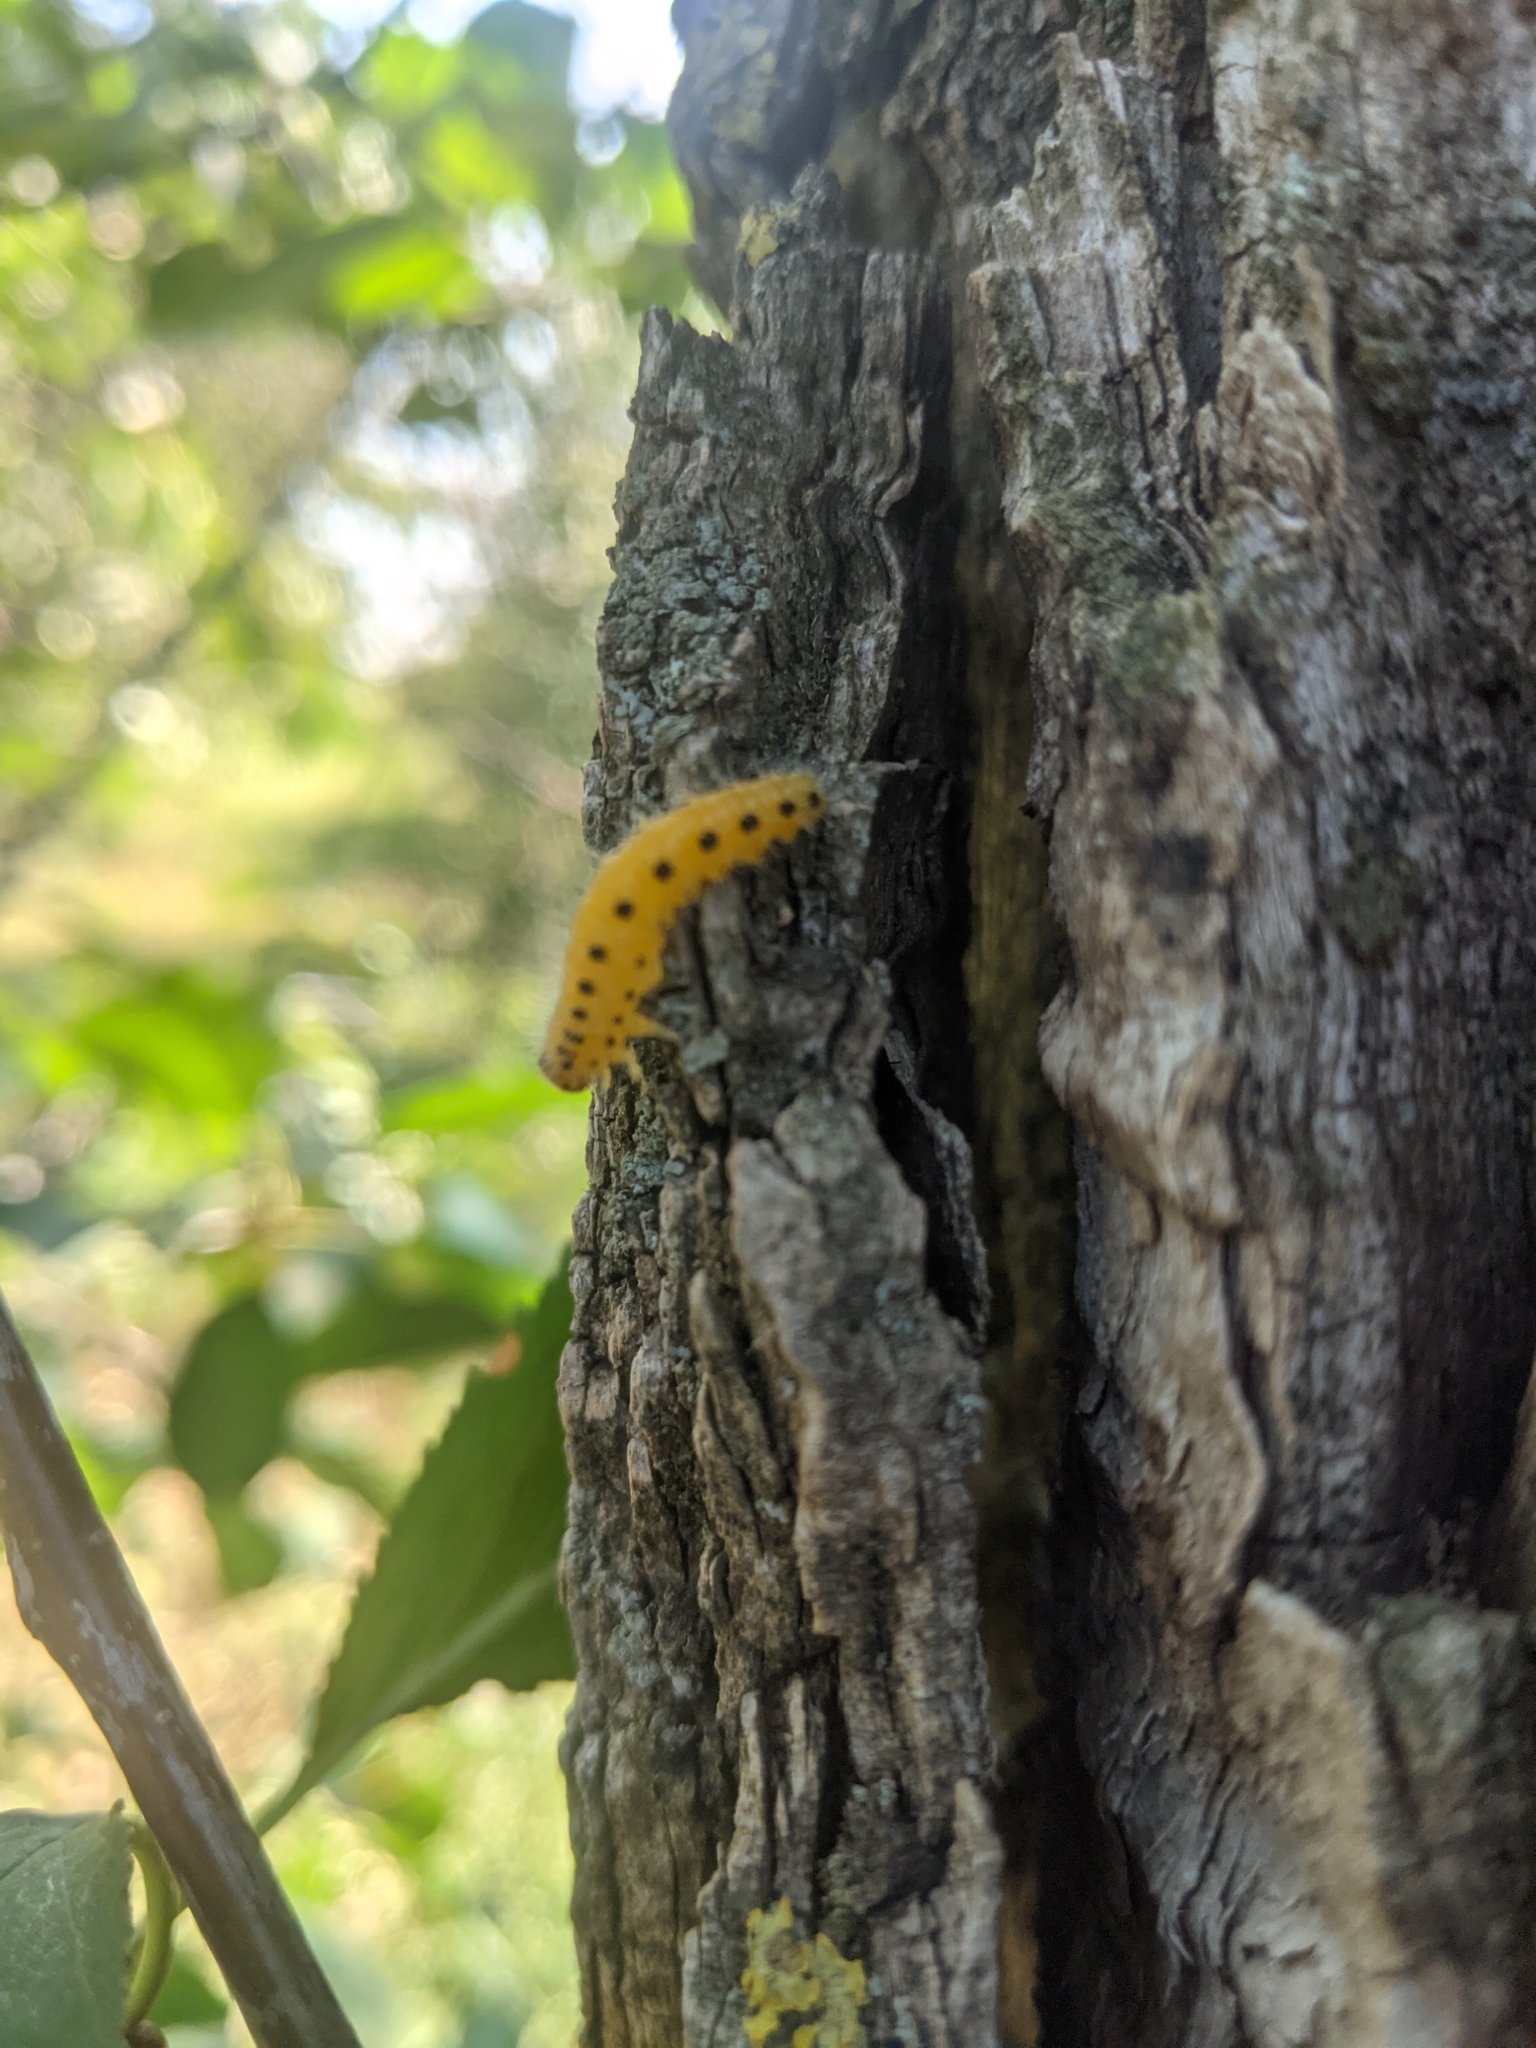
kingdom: Animalia
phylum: Arthropoda
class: Insecta
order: Hymenoptera
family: Tenthredinidae
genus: Cladius
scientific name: Cladius grandis
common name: Common sawfly
